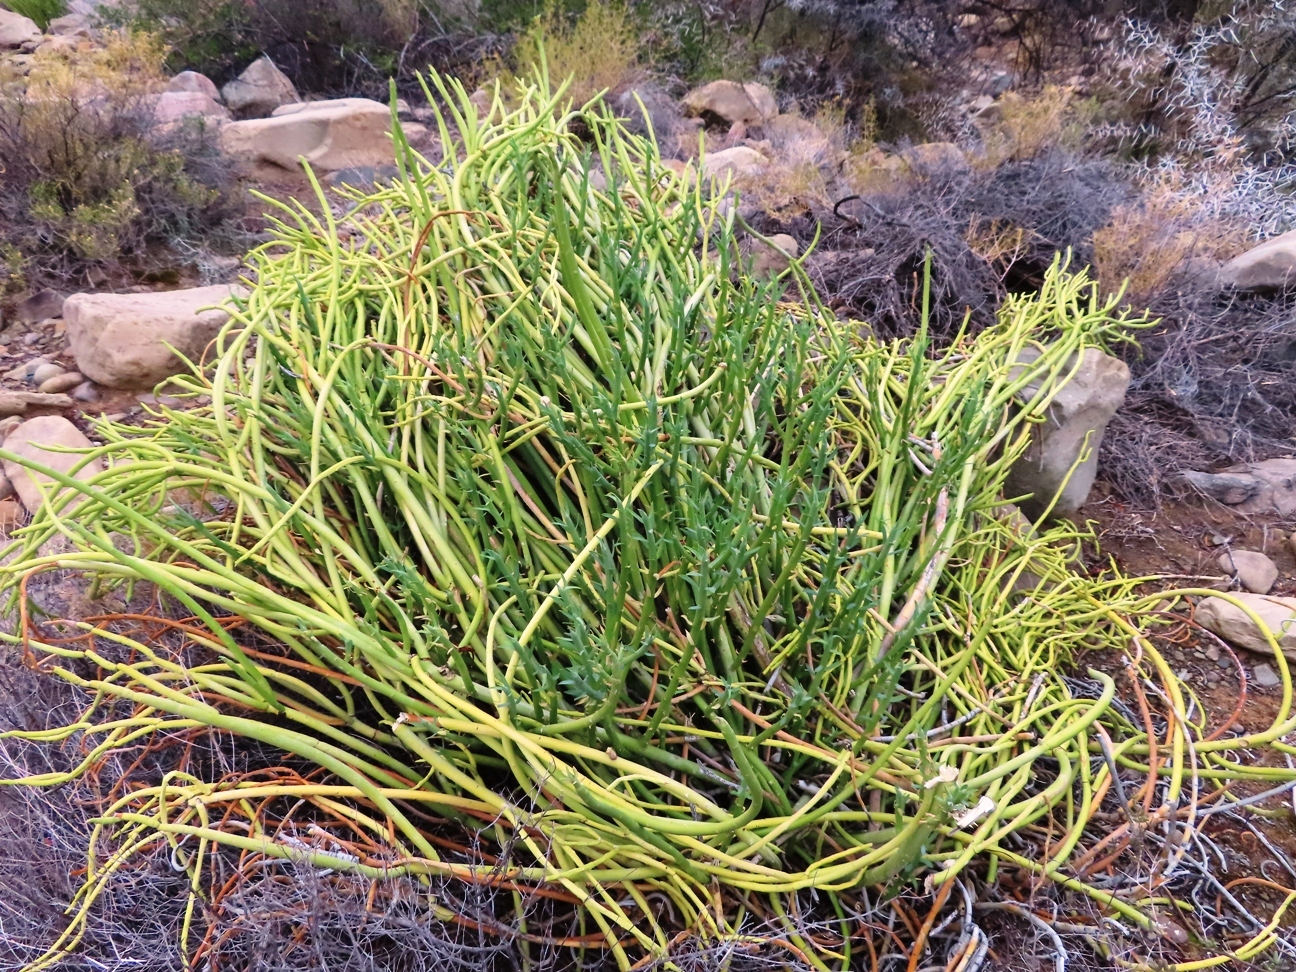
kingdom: Plantae
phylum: Tracheophyta
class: Magnoliopsida
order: Malpighiales
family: Euphorbiaceae
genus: Euphorbia
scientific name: Euphorbia mauritanica
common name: Jackal's-food
